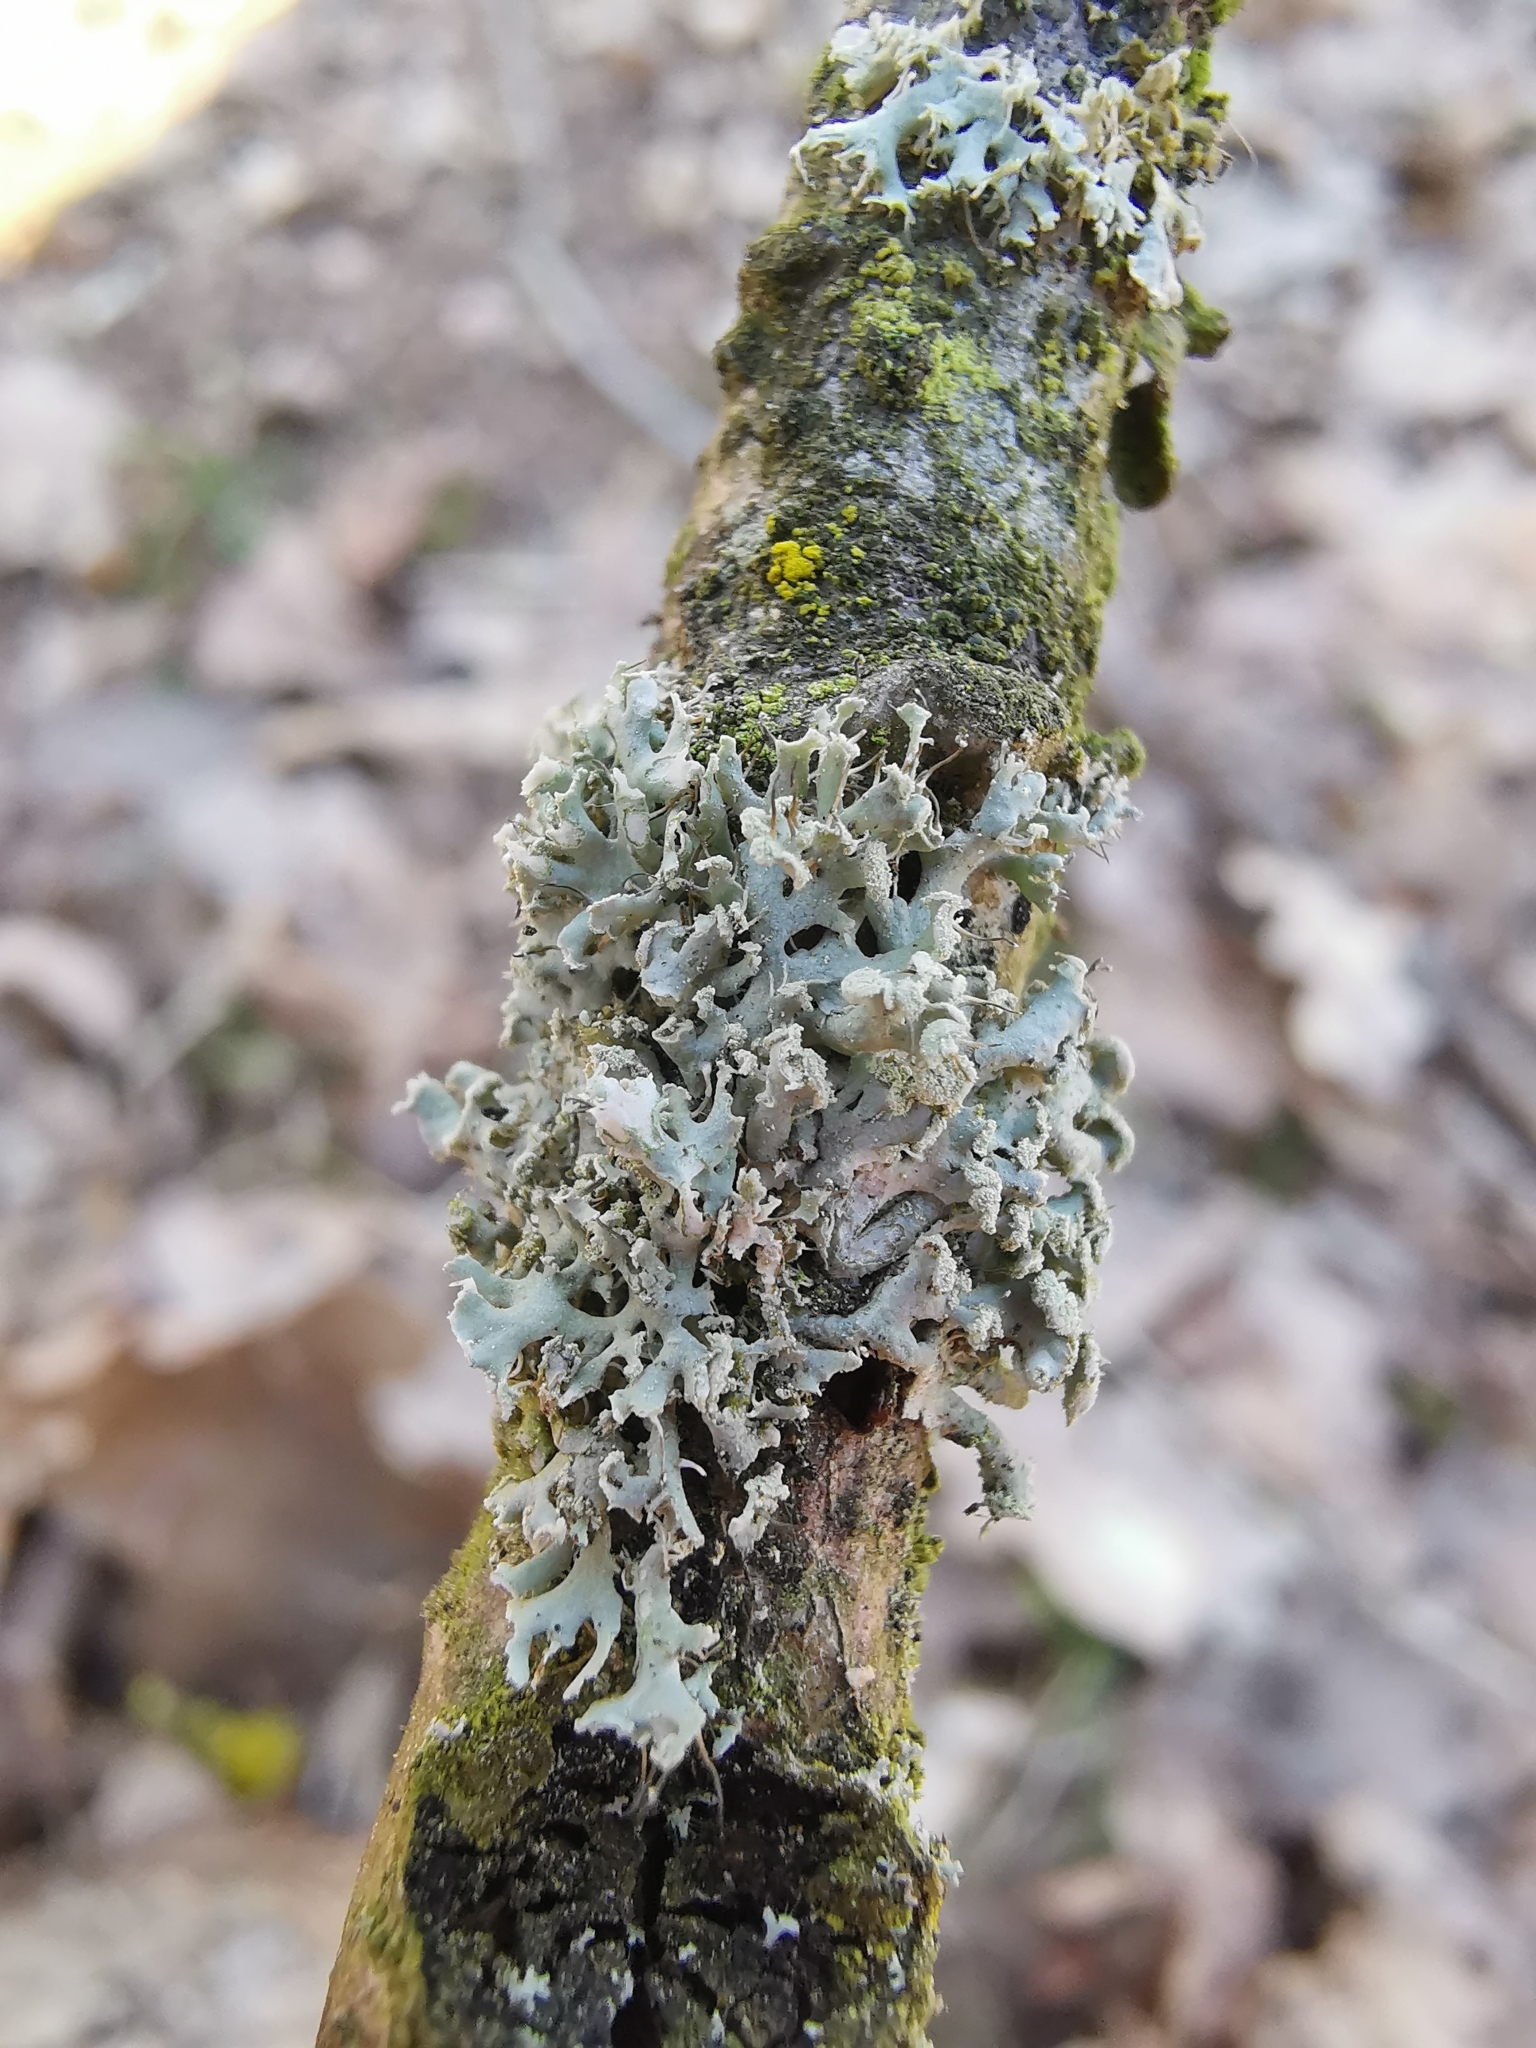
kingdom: Fungi
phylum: Ascomycota
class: Lecanoromycetes
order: Caliciales
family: Physciaceae
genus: Physcia
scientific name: Physcia tenella
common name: Fringed rosette lichen
